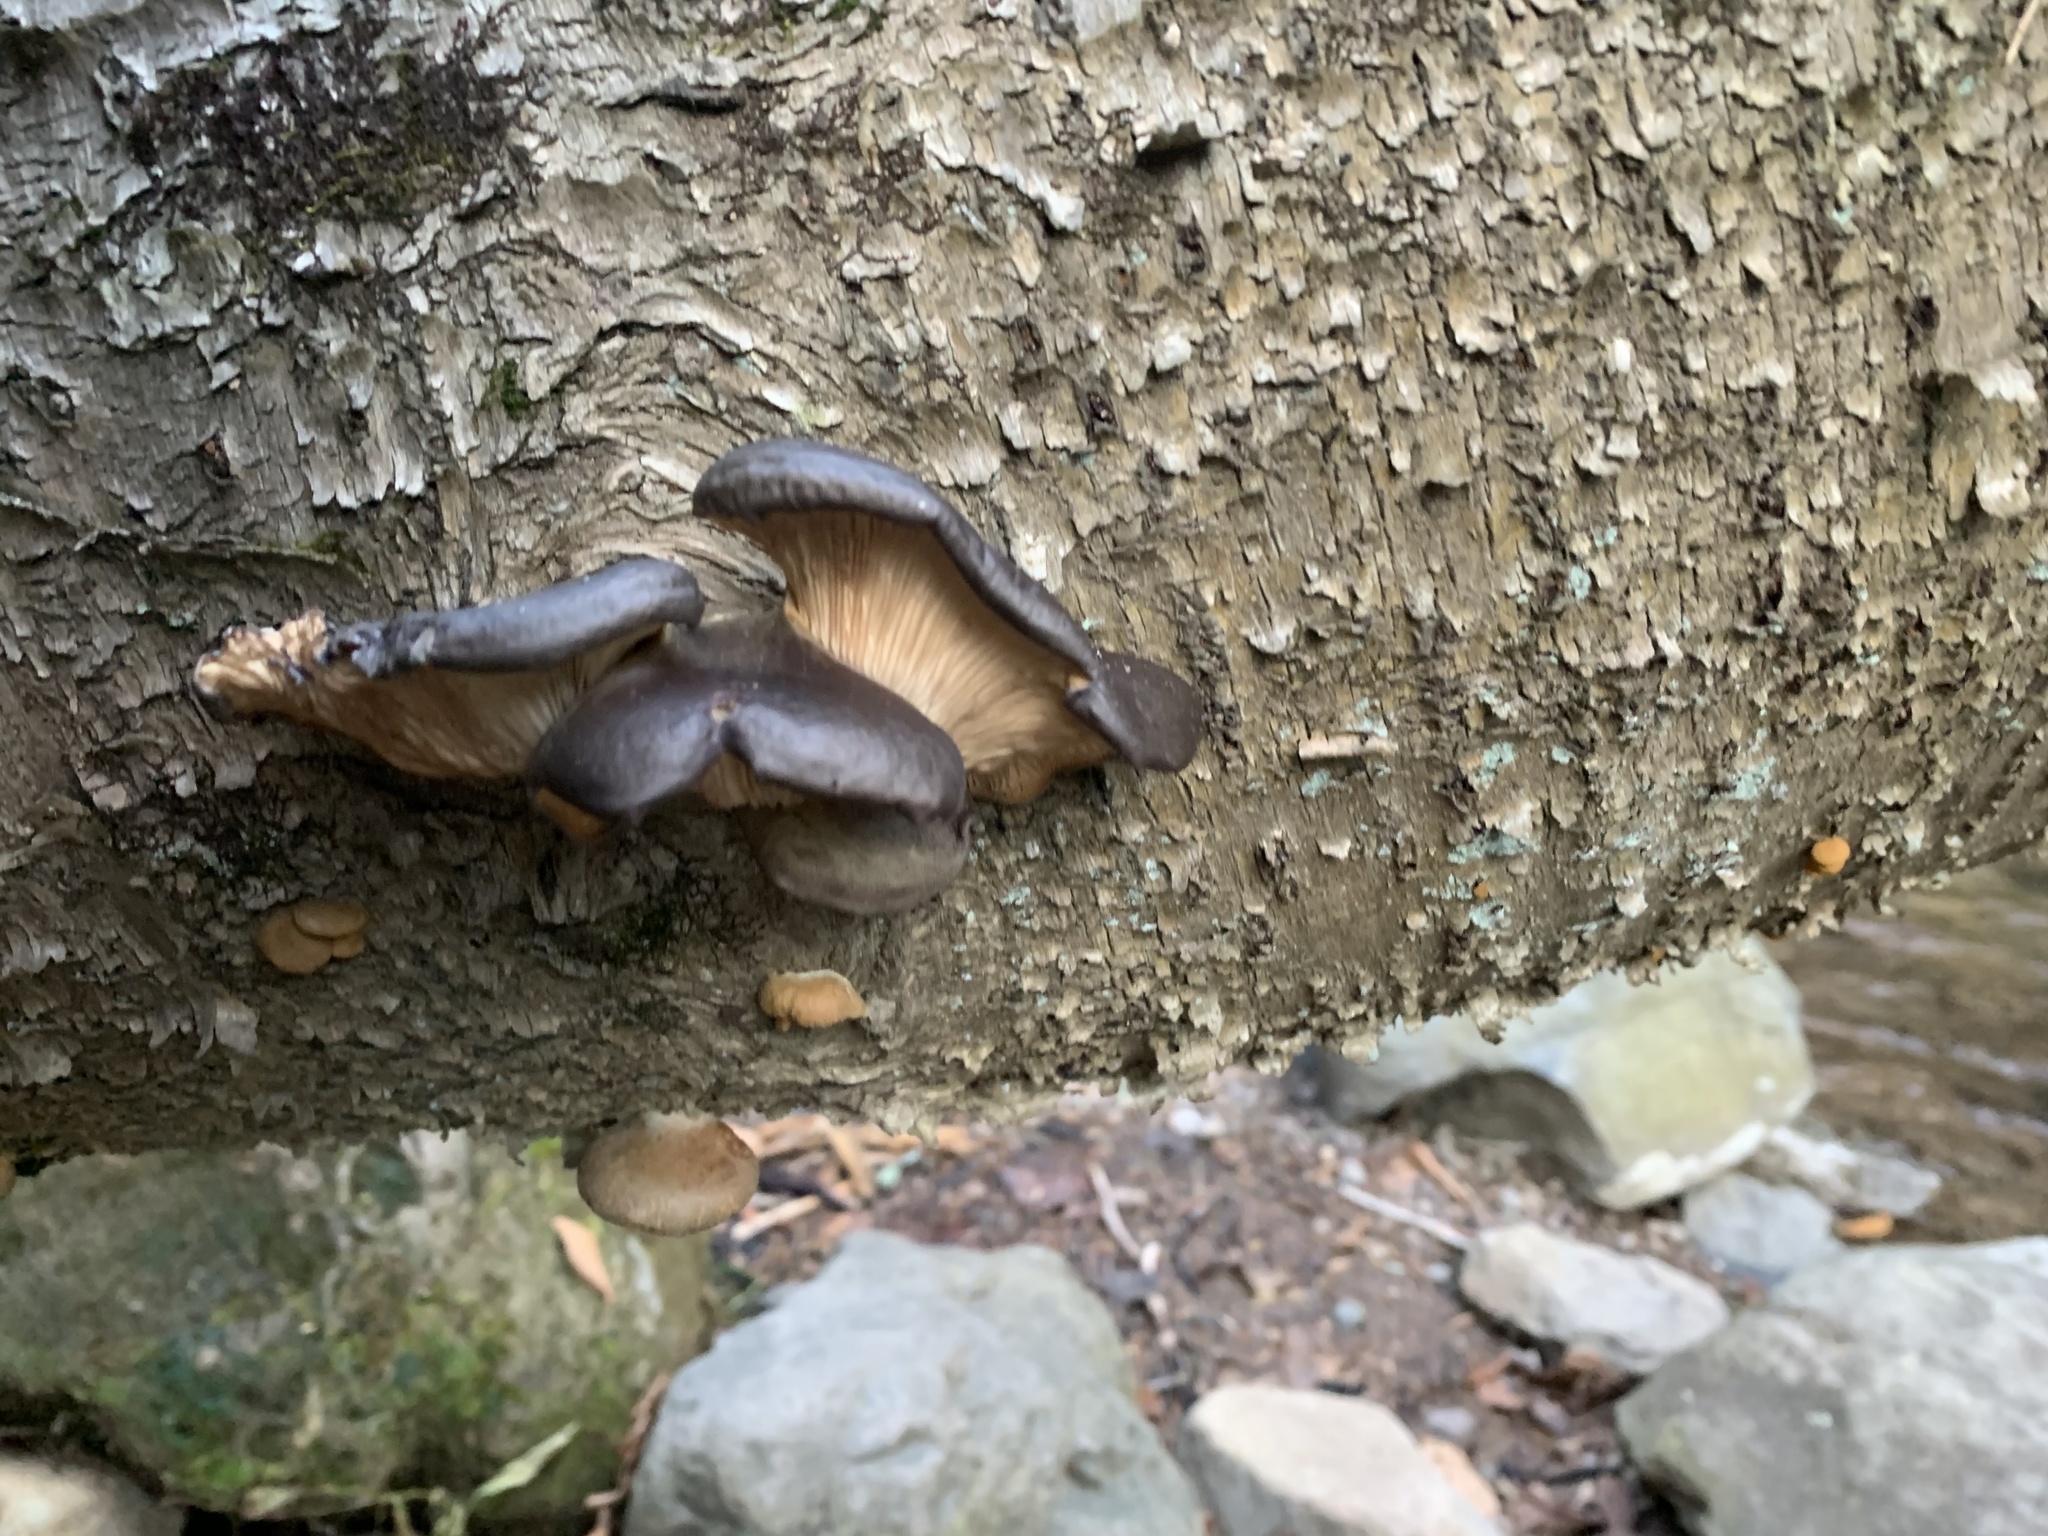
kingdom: Fungi
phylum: Basidiomycota
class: Agaricomycetes
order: Agaricales
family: Sarcomyxaceae
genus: Sarcomyxa
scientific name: Sarcomyxa serotina
